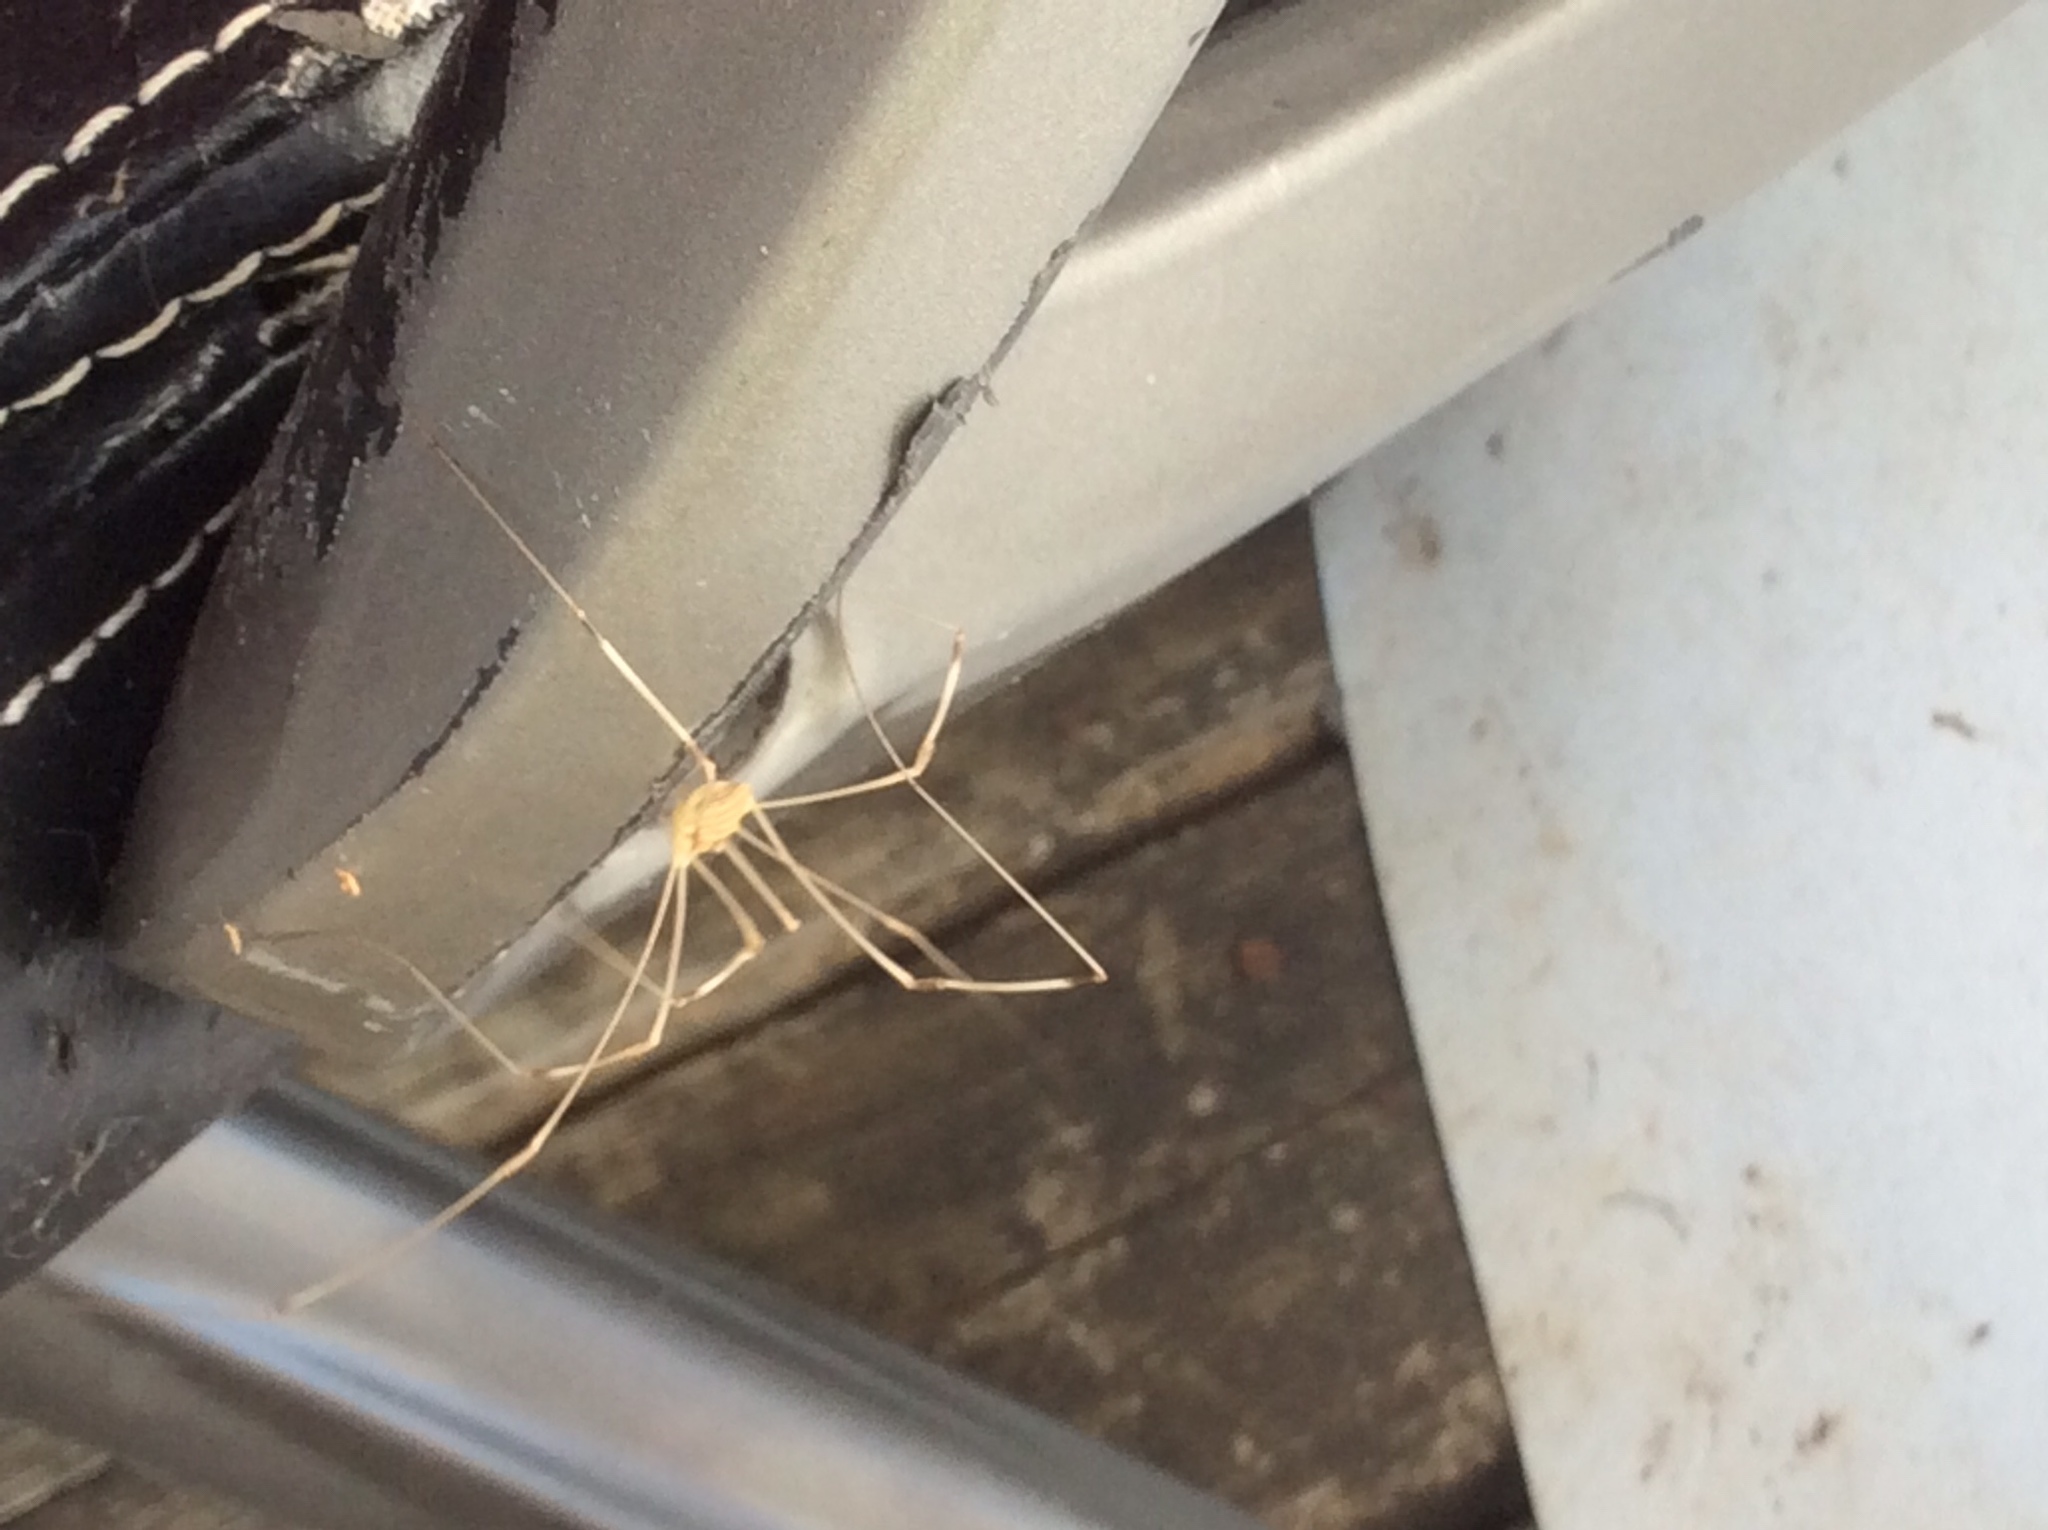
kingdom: Animalia
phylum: Arthropoda
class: Arachnida
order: Opiliones
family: Sclerosomatidae
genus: Leiobunum
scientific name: Leiobunum flavum
